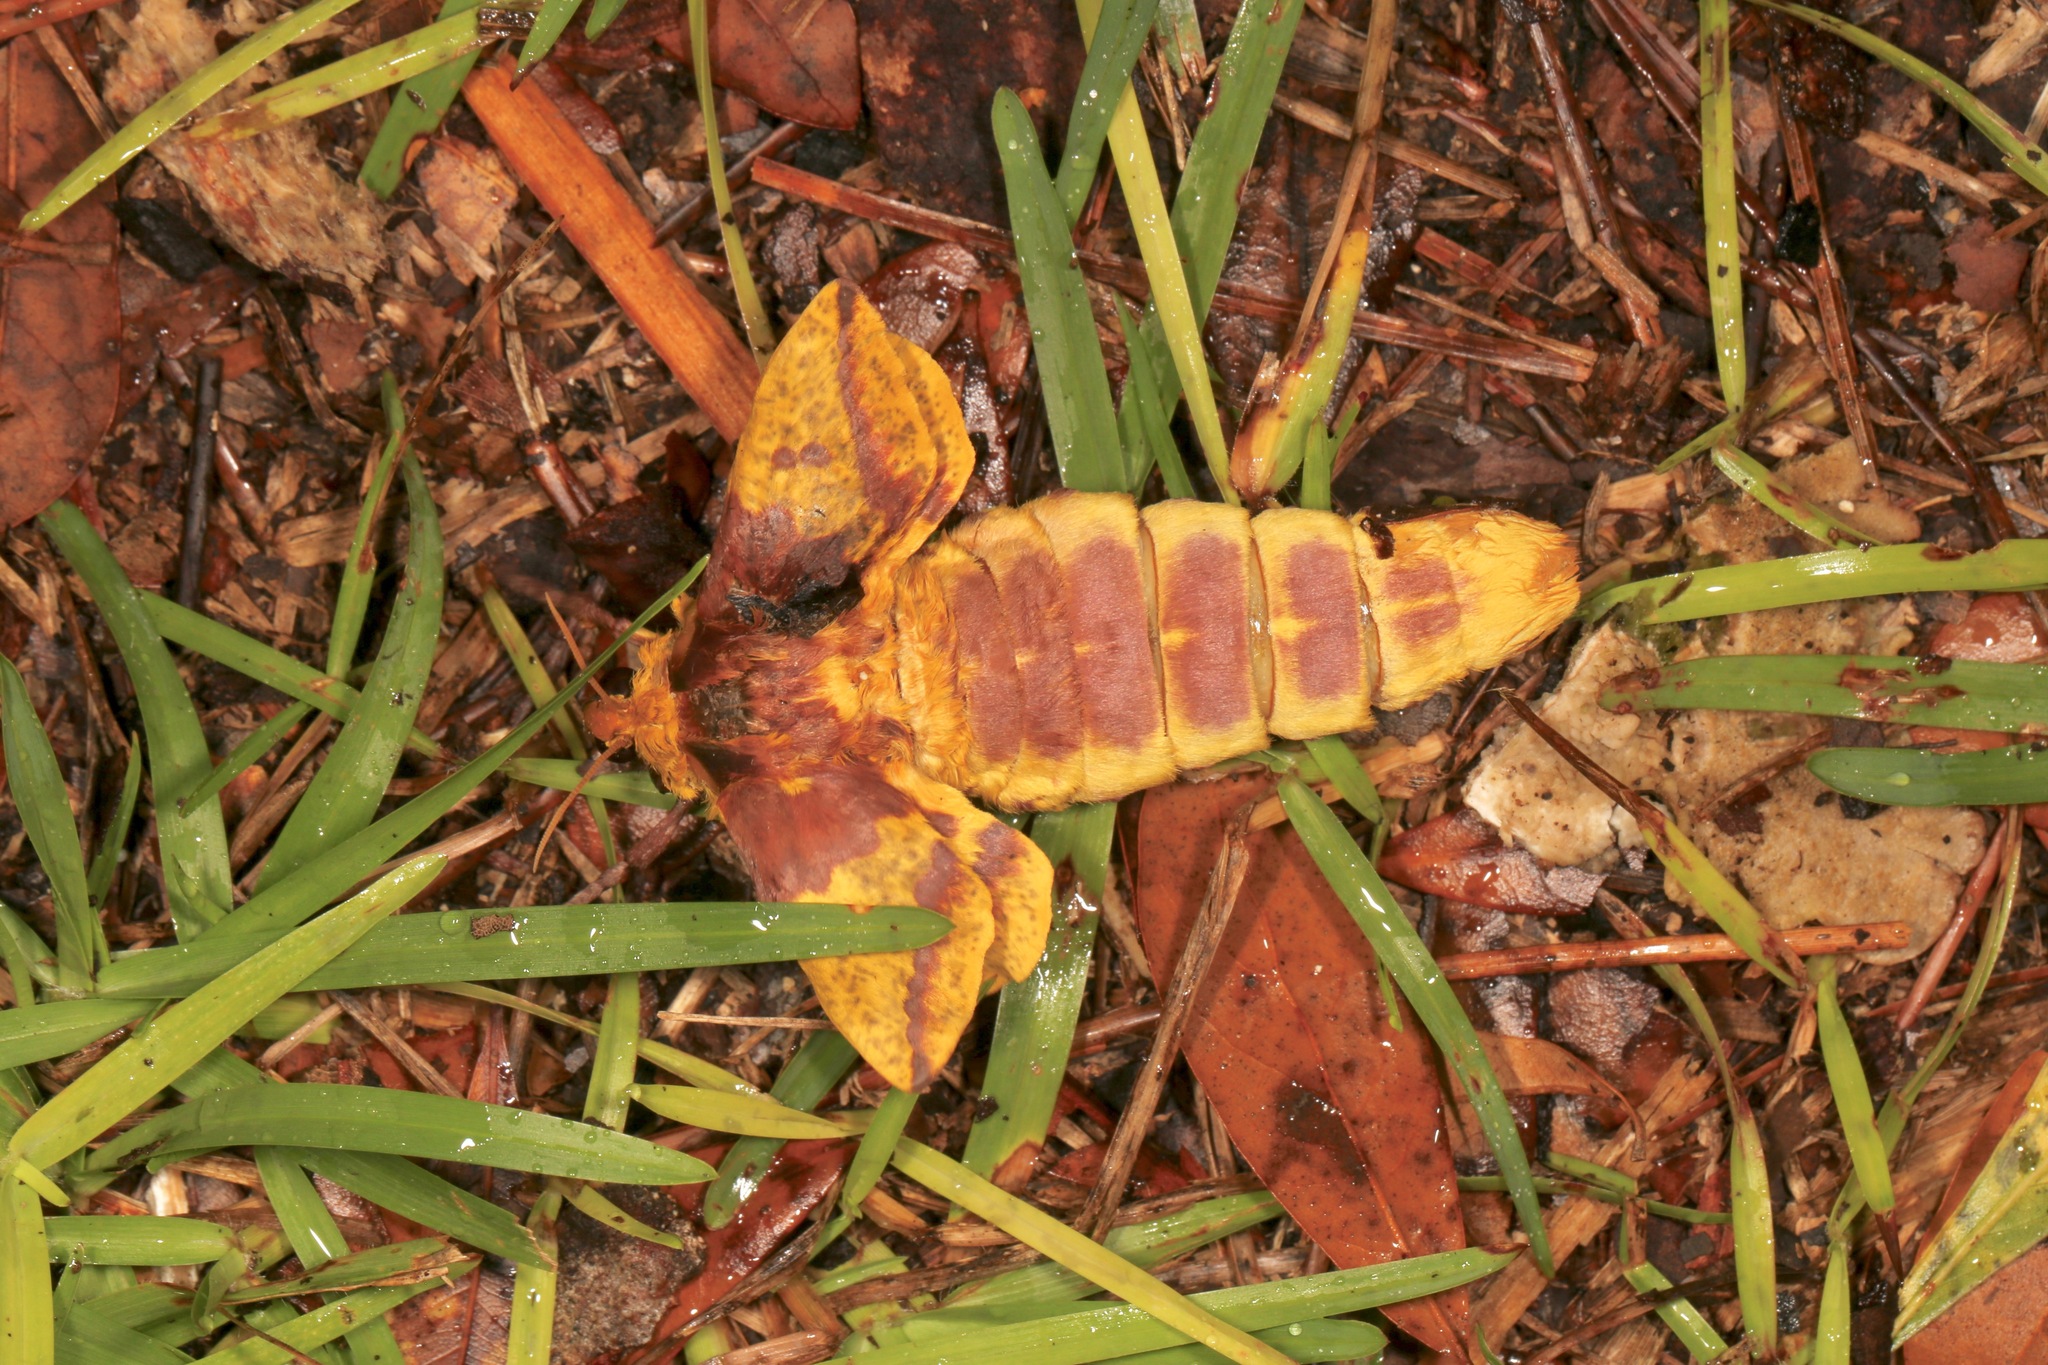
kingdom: Animalia
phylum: Arthropoda
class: Insecta
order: Lepidoptera
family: Saturniidae
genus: Eacles
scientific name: Eacles imperialis
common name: Imperial moth
